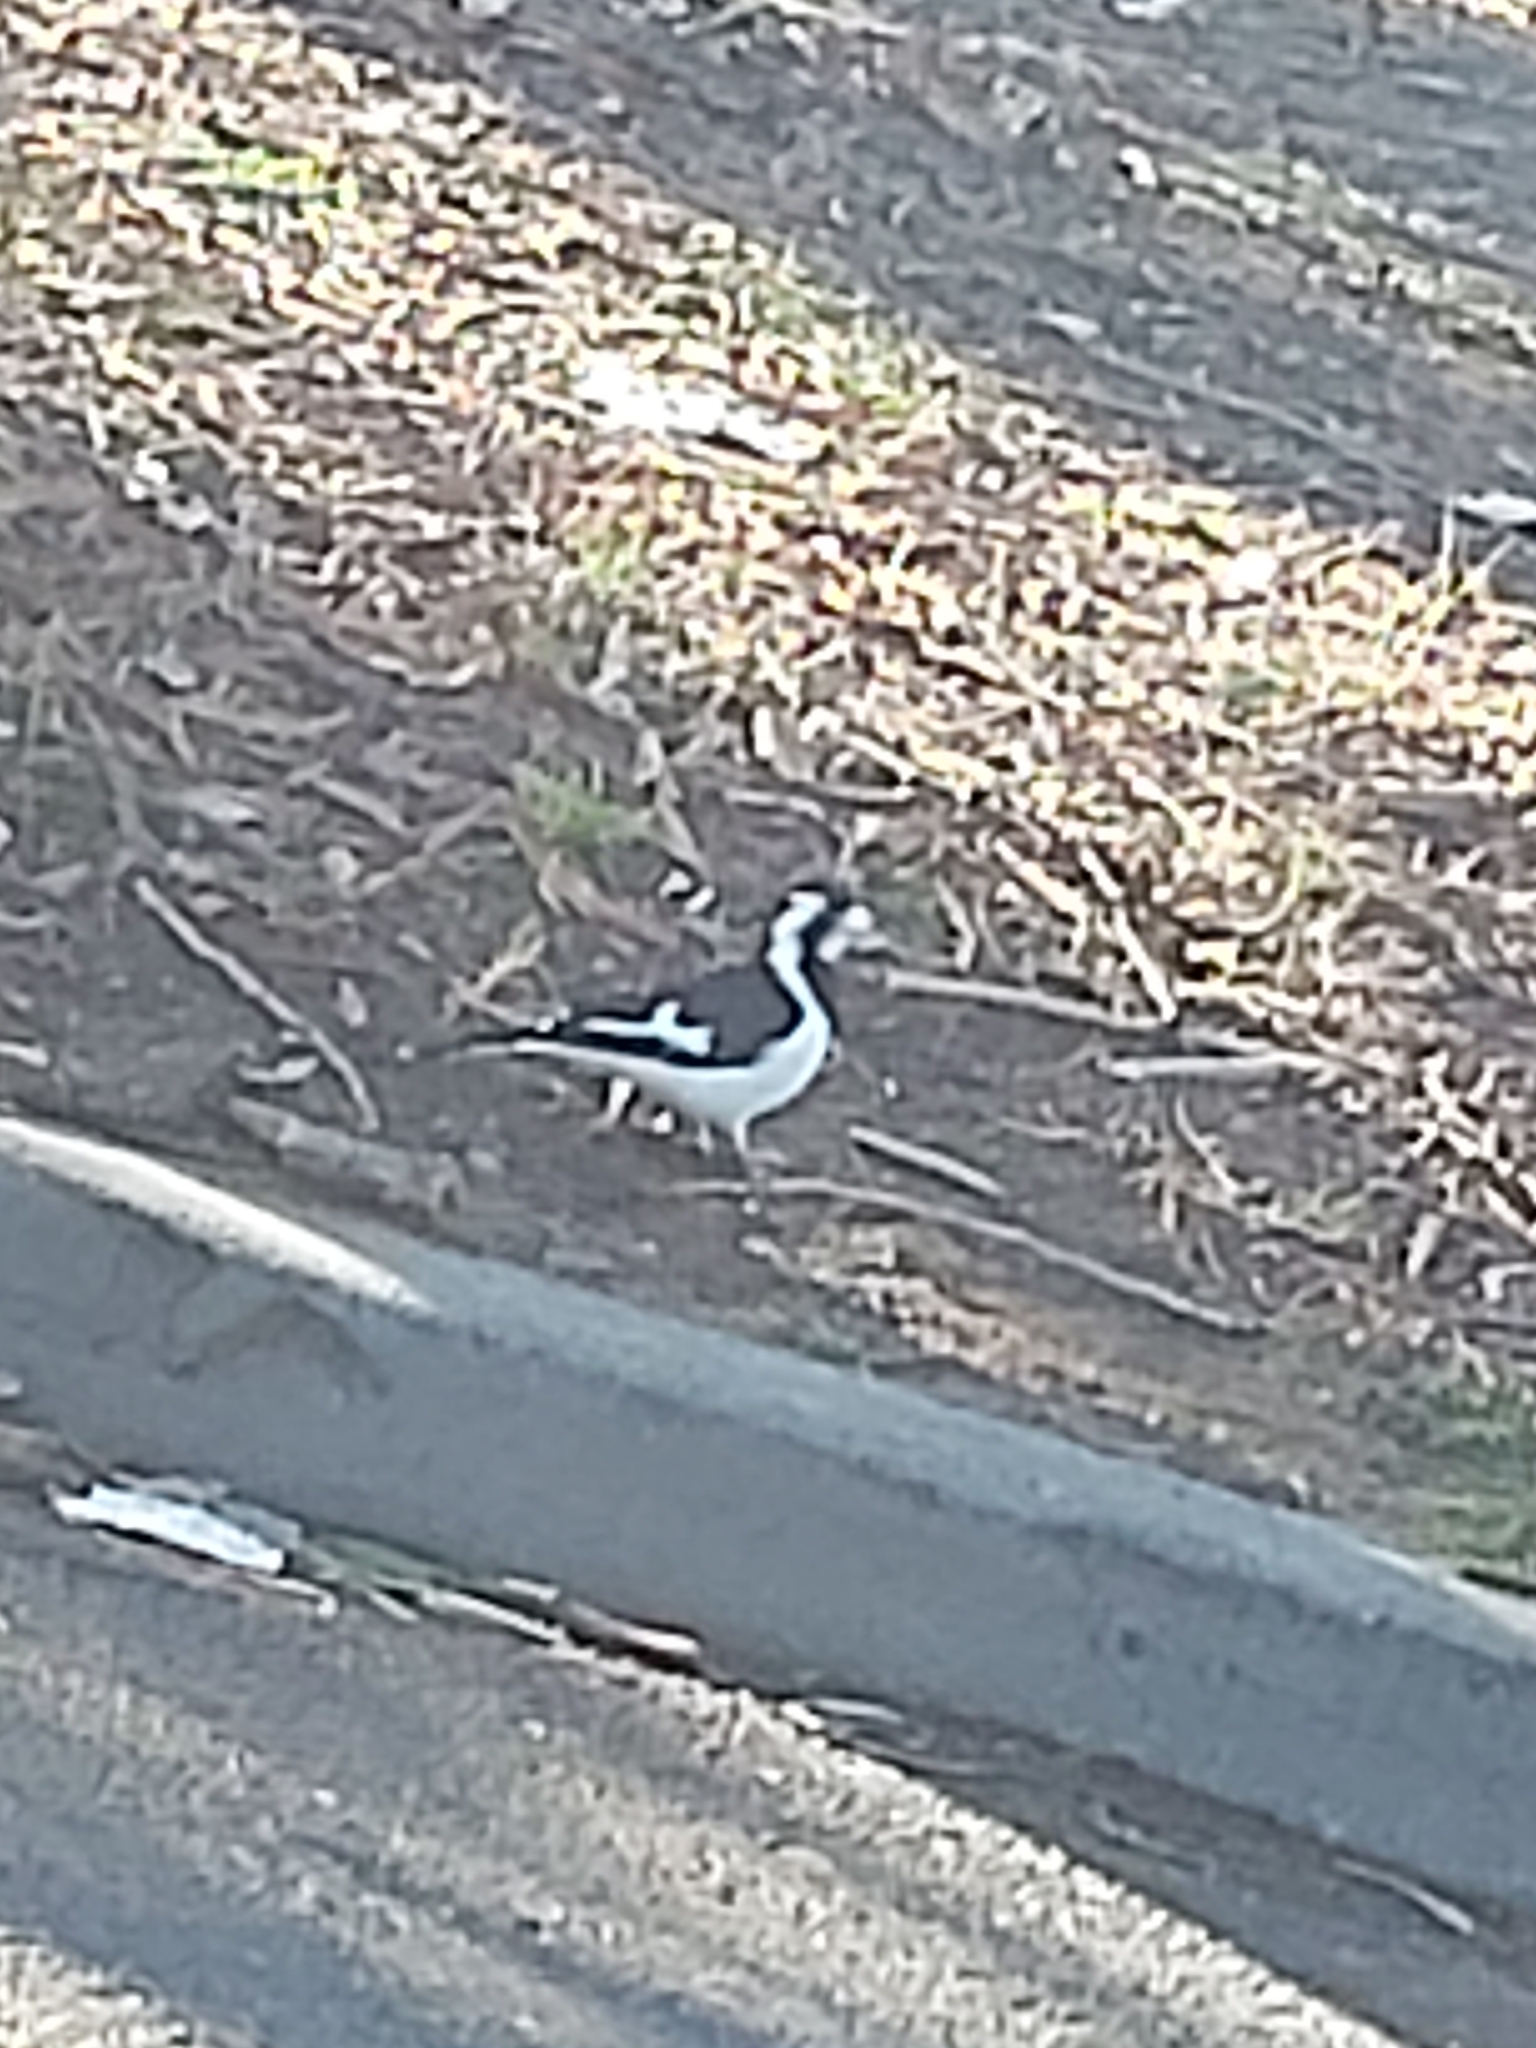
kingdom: Animalia
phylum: Chordata
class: Aves
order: Passeriformes
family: Monarchidae
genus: Grallina
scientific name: Grallina cyanoleuca
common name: Magpie-lark
